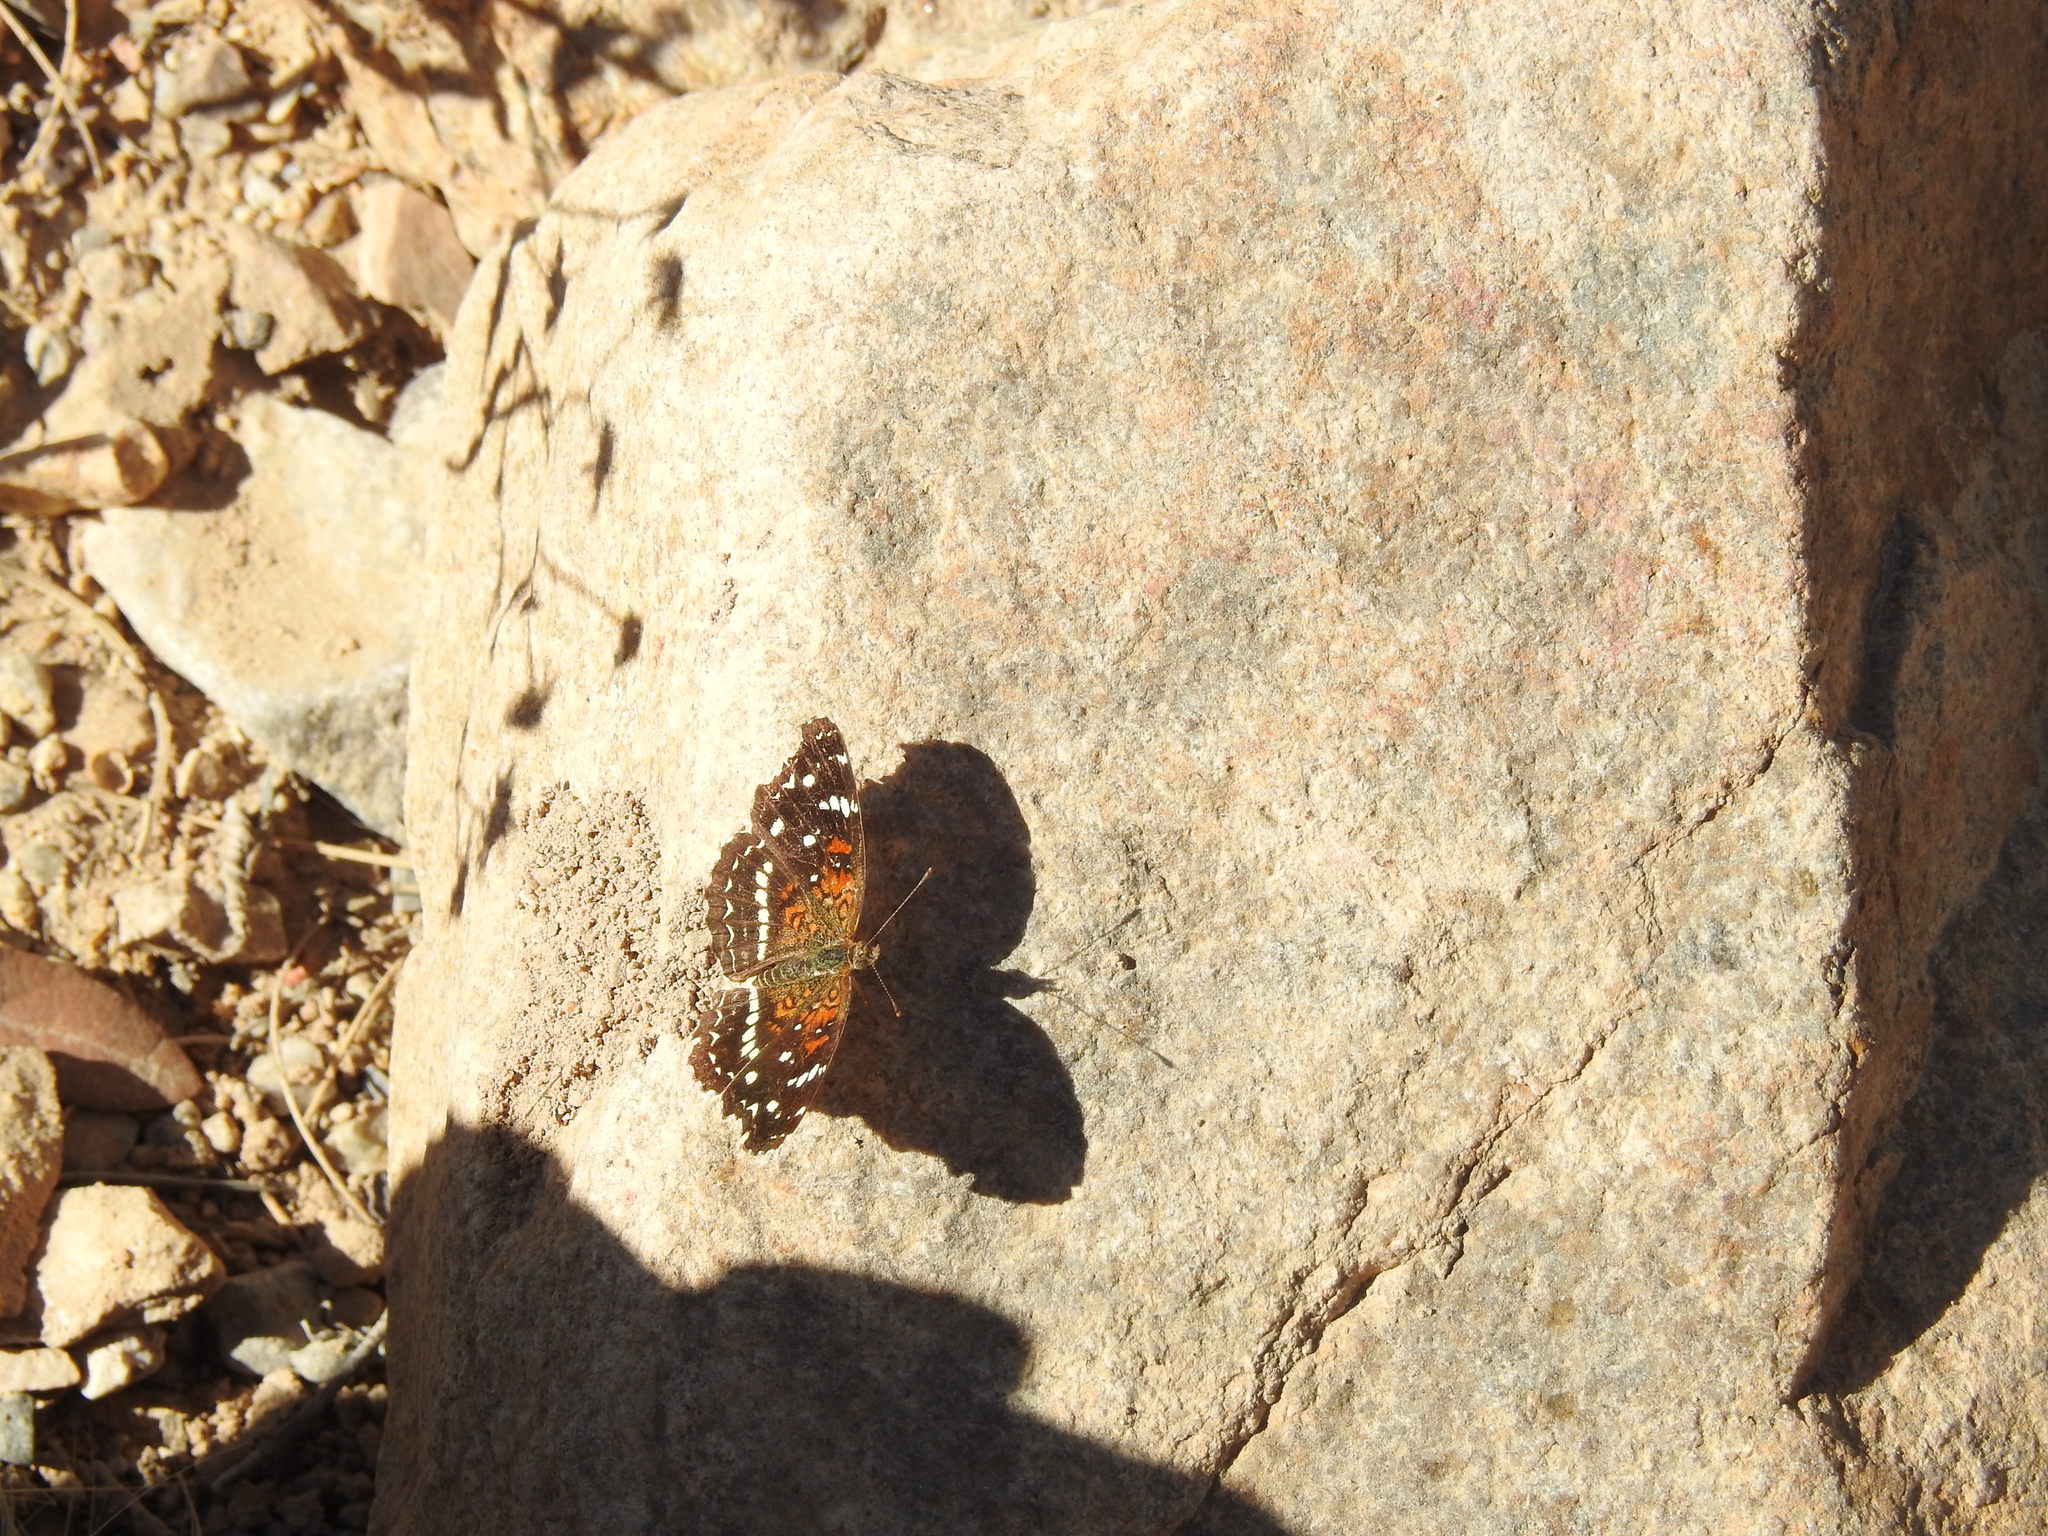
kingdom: Animalia
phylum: Arthropoda
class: Insecta
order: Lepidoptera
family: Nymphalidae
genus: Anthanassa
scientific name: Anthanassa texana
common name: Texan crescent
